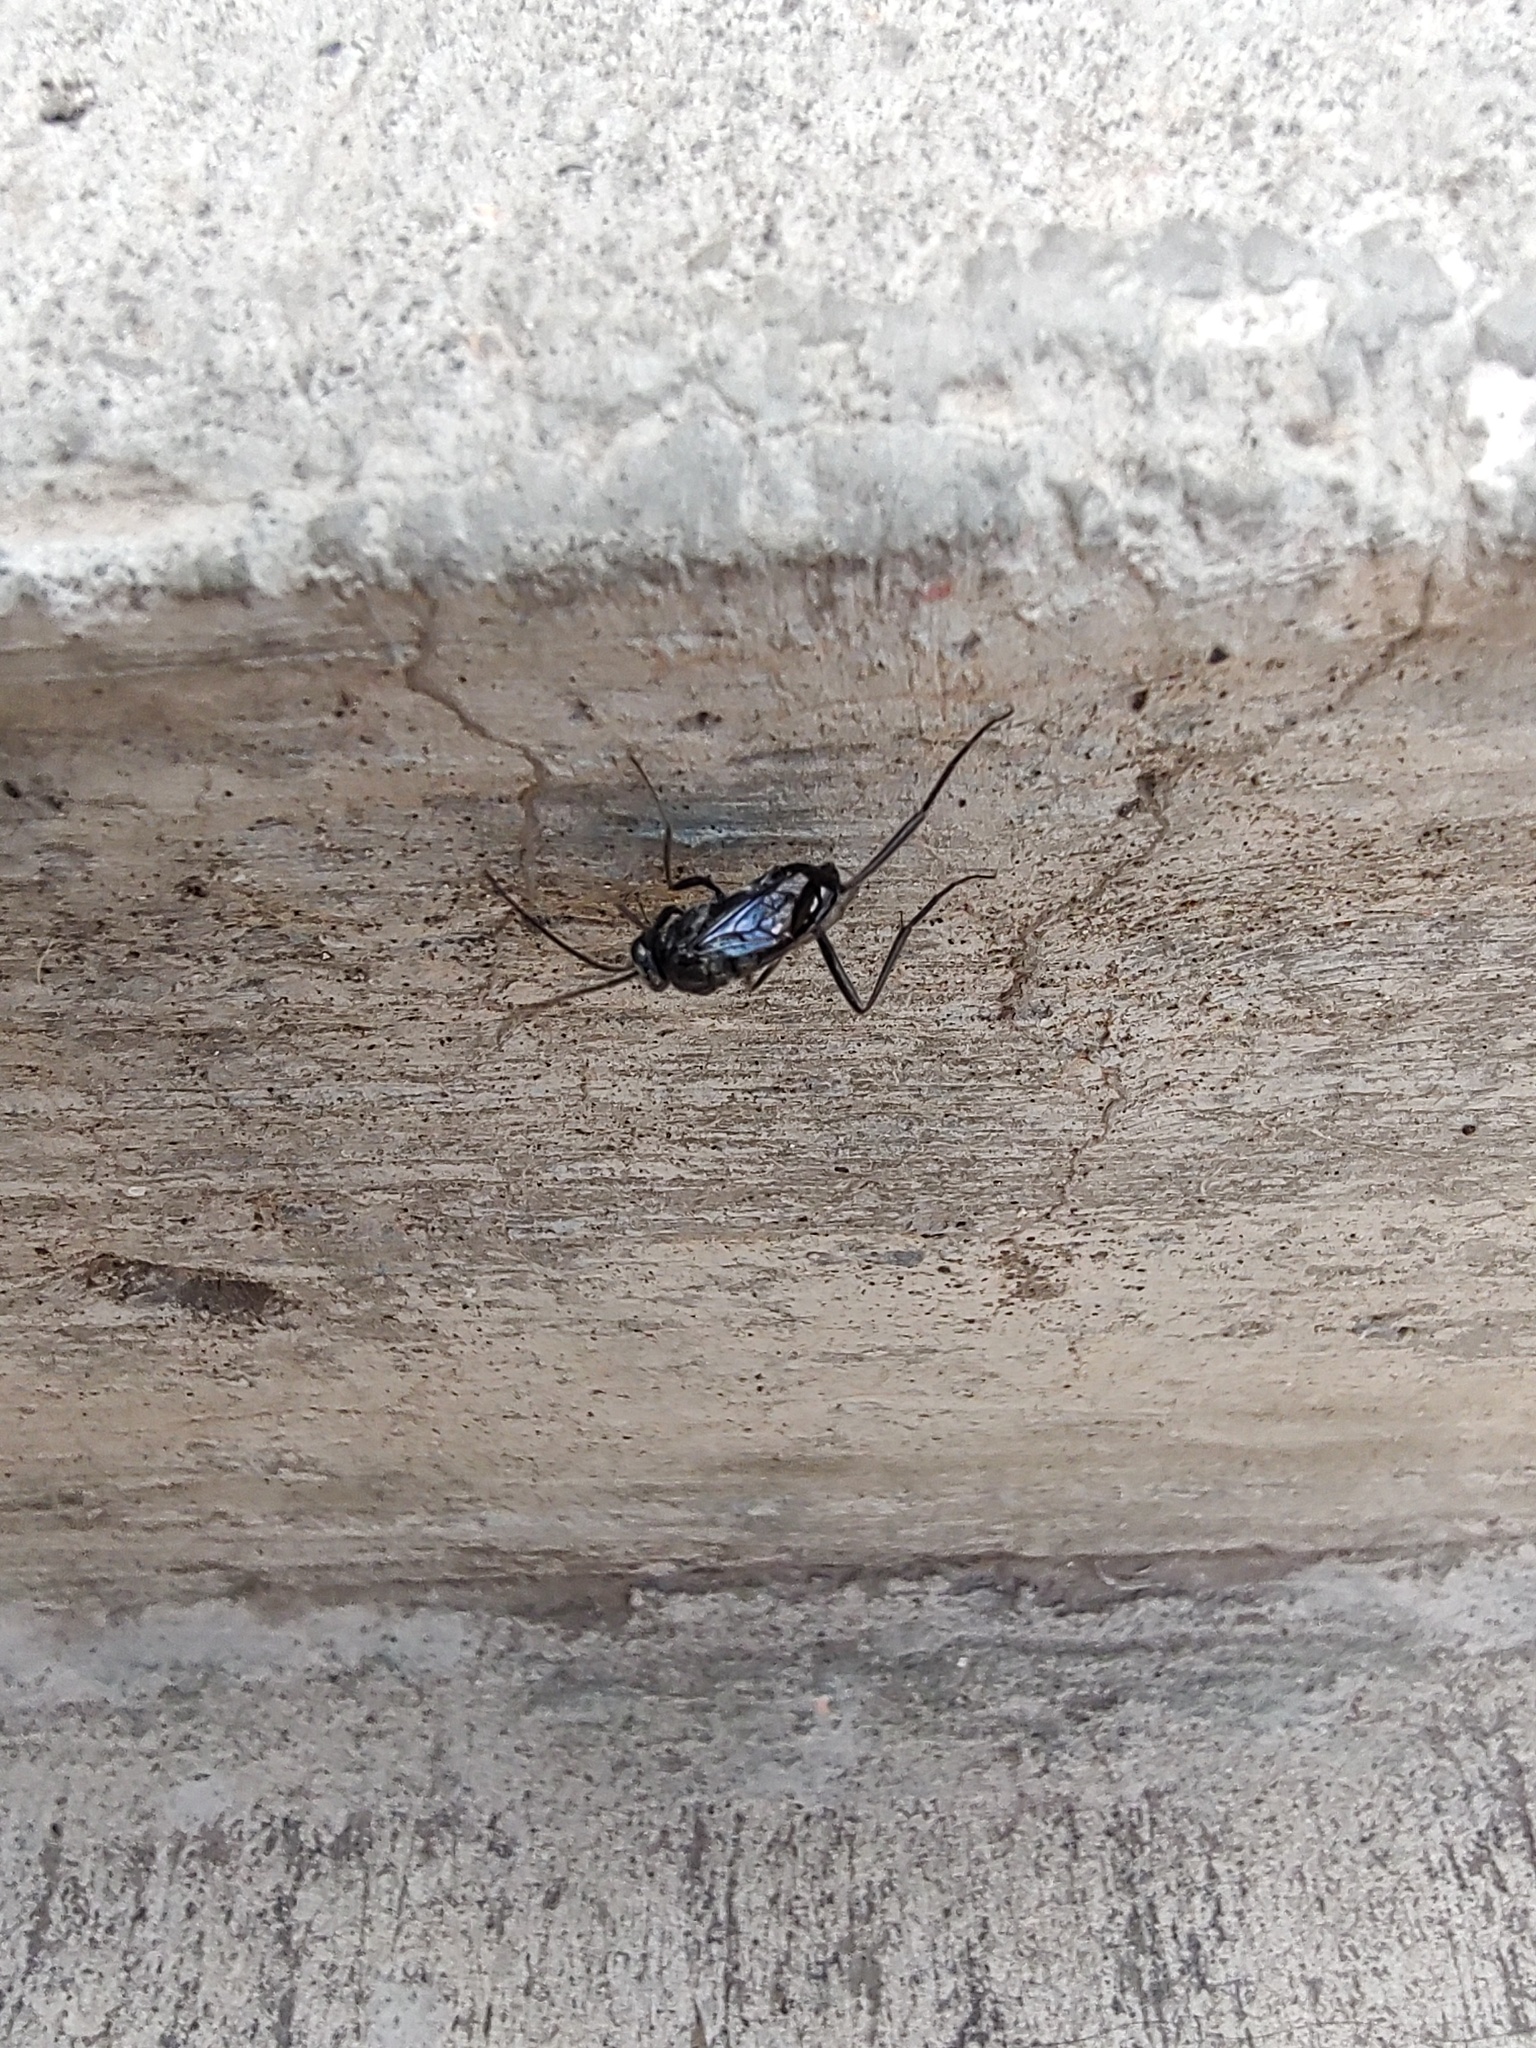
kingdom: Animalia
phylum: Arthropoda
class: Insecta
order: Hymenoptera
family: Evaniidae
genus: Evania
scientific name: Evania appendigaster
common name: Ensign wasp
